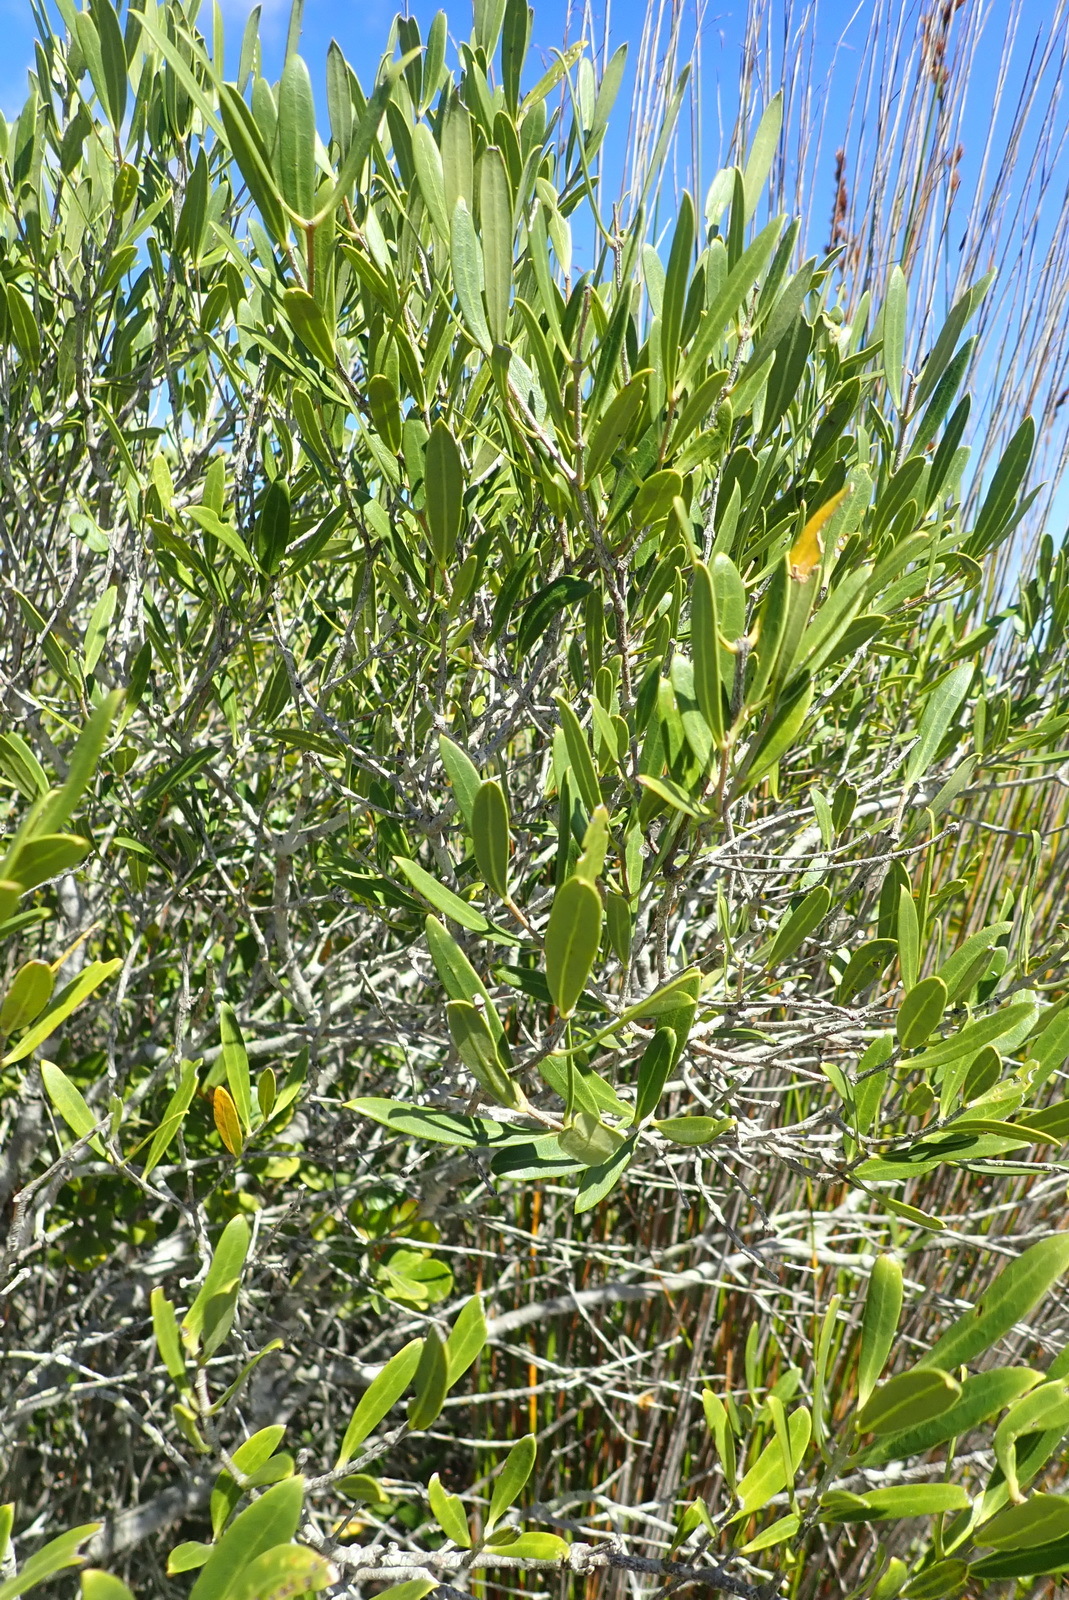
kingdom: Plantae
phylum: Tracheophyta
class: Magnoliopsida
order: Lamiales
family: Oleaceae
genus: Olea
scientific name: Olea exasperata
